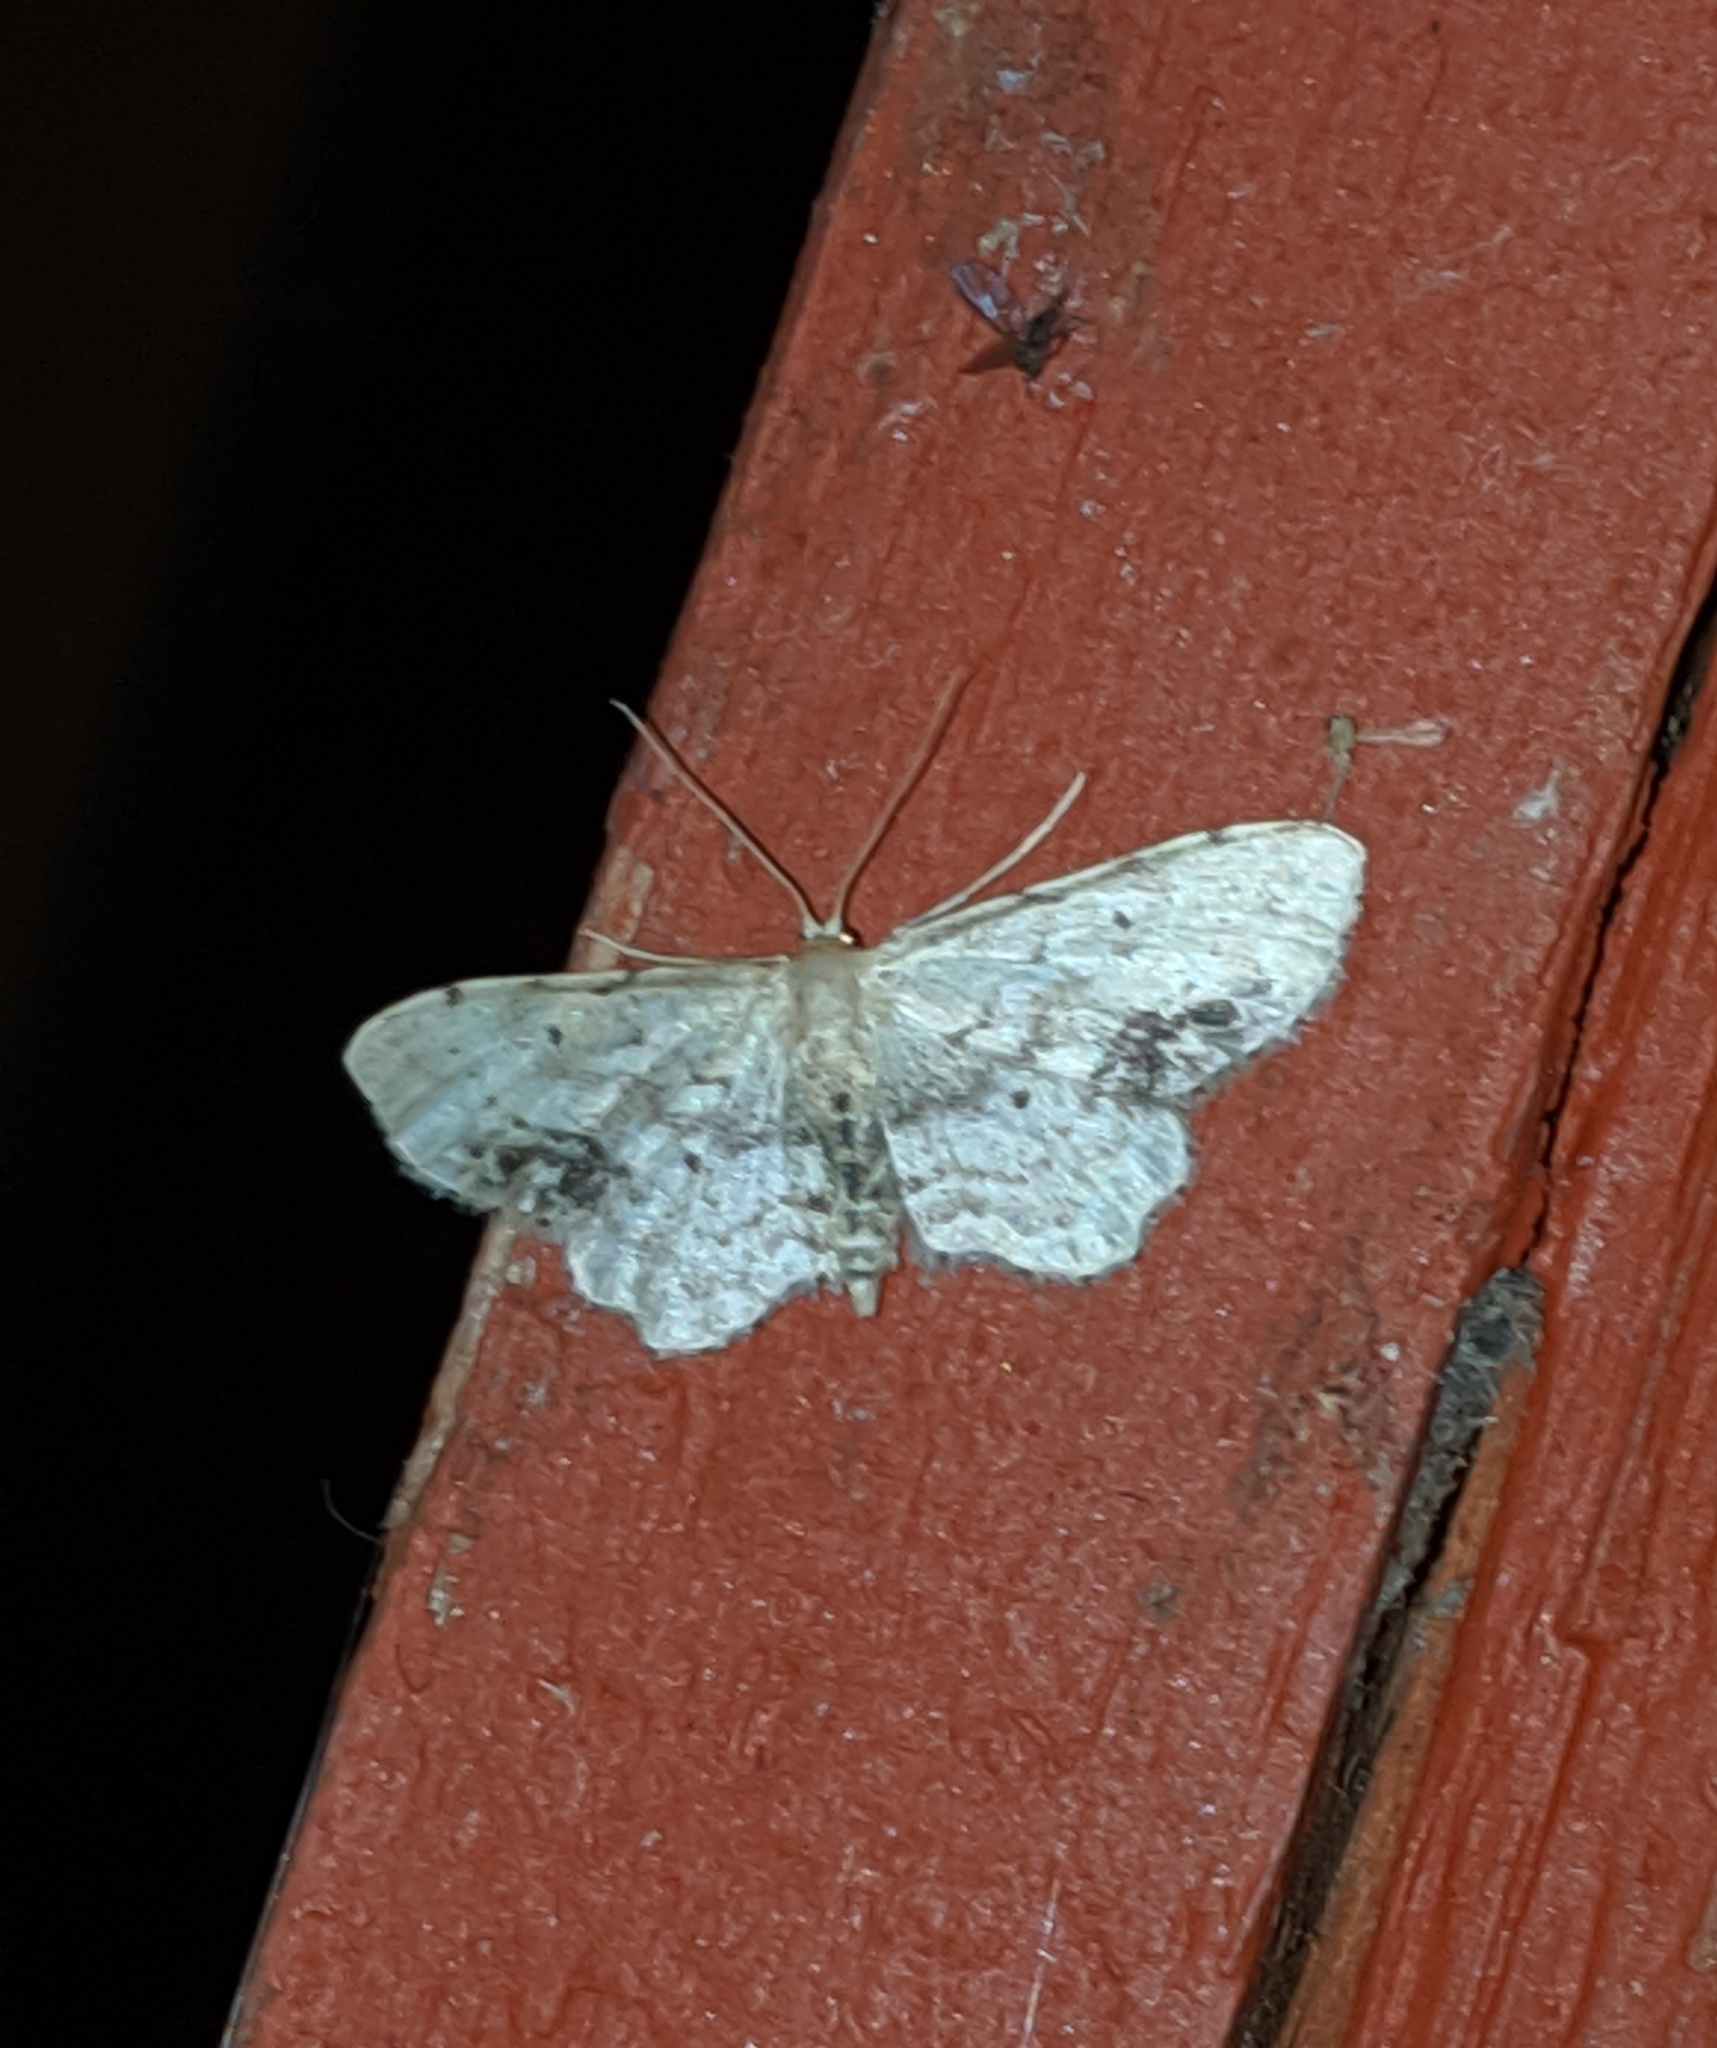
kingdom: Animalia
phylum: Arthropoda
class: Insecta
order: Lepidoptera
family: Geometridae
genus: Idaea
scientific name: Idaea dimidiata
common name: Single-dotted wave
